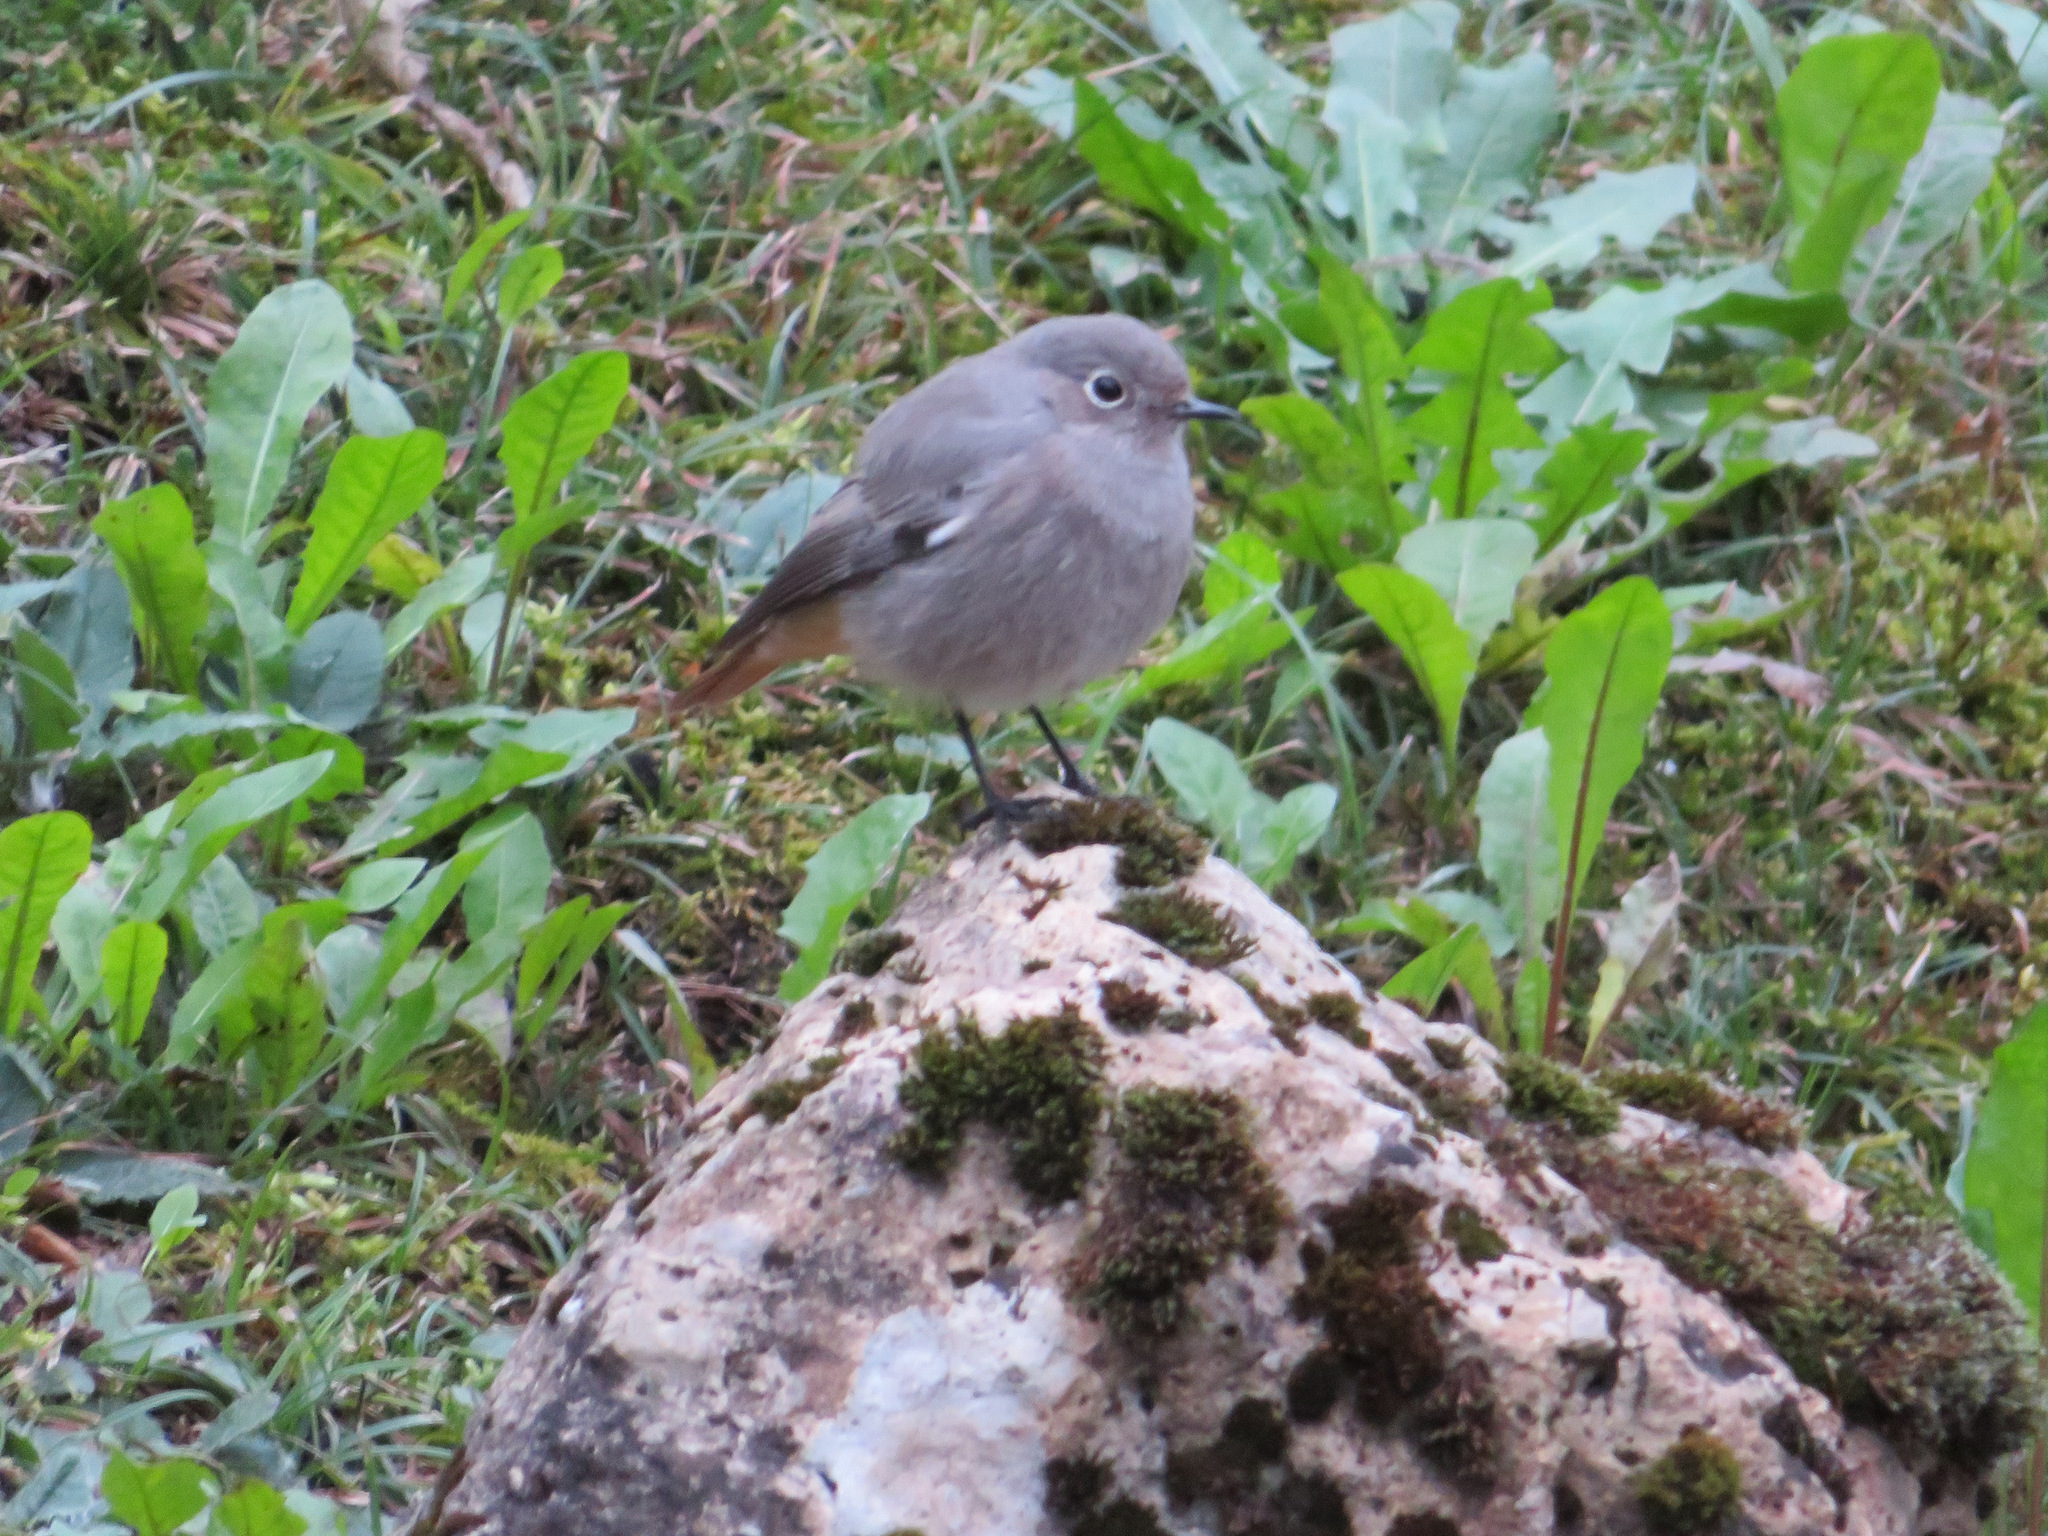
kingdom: Animalia
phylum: Chordata
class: Aves
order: Passeriformes
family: Muscicapidae
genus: Phoenicurus
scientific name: Phoenicurus ochruros
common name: Black redstart
